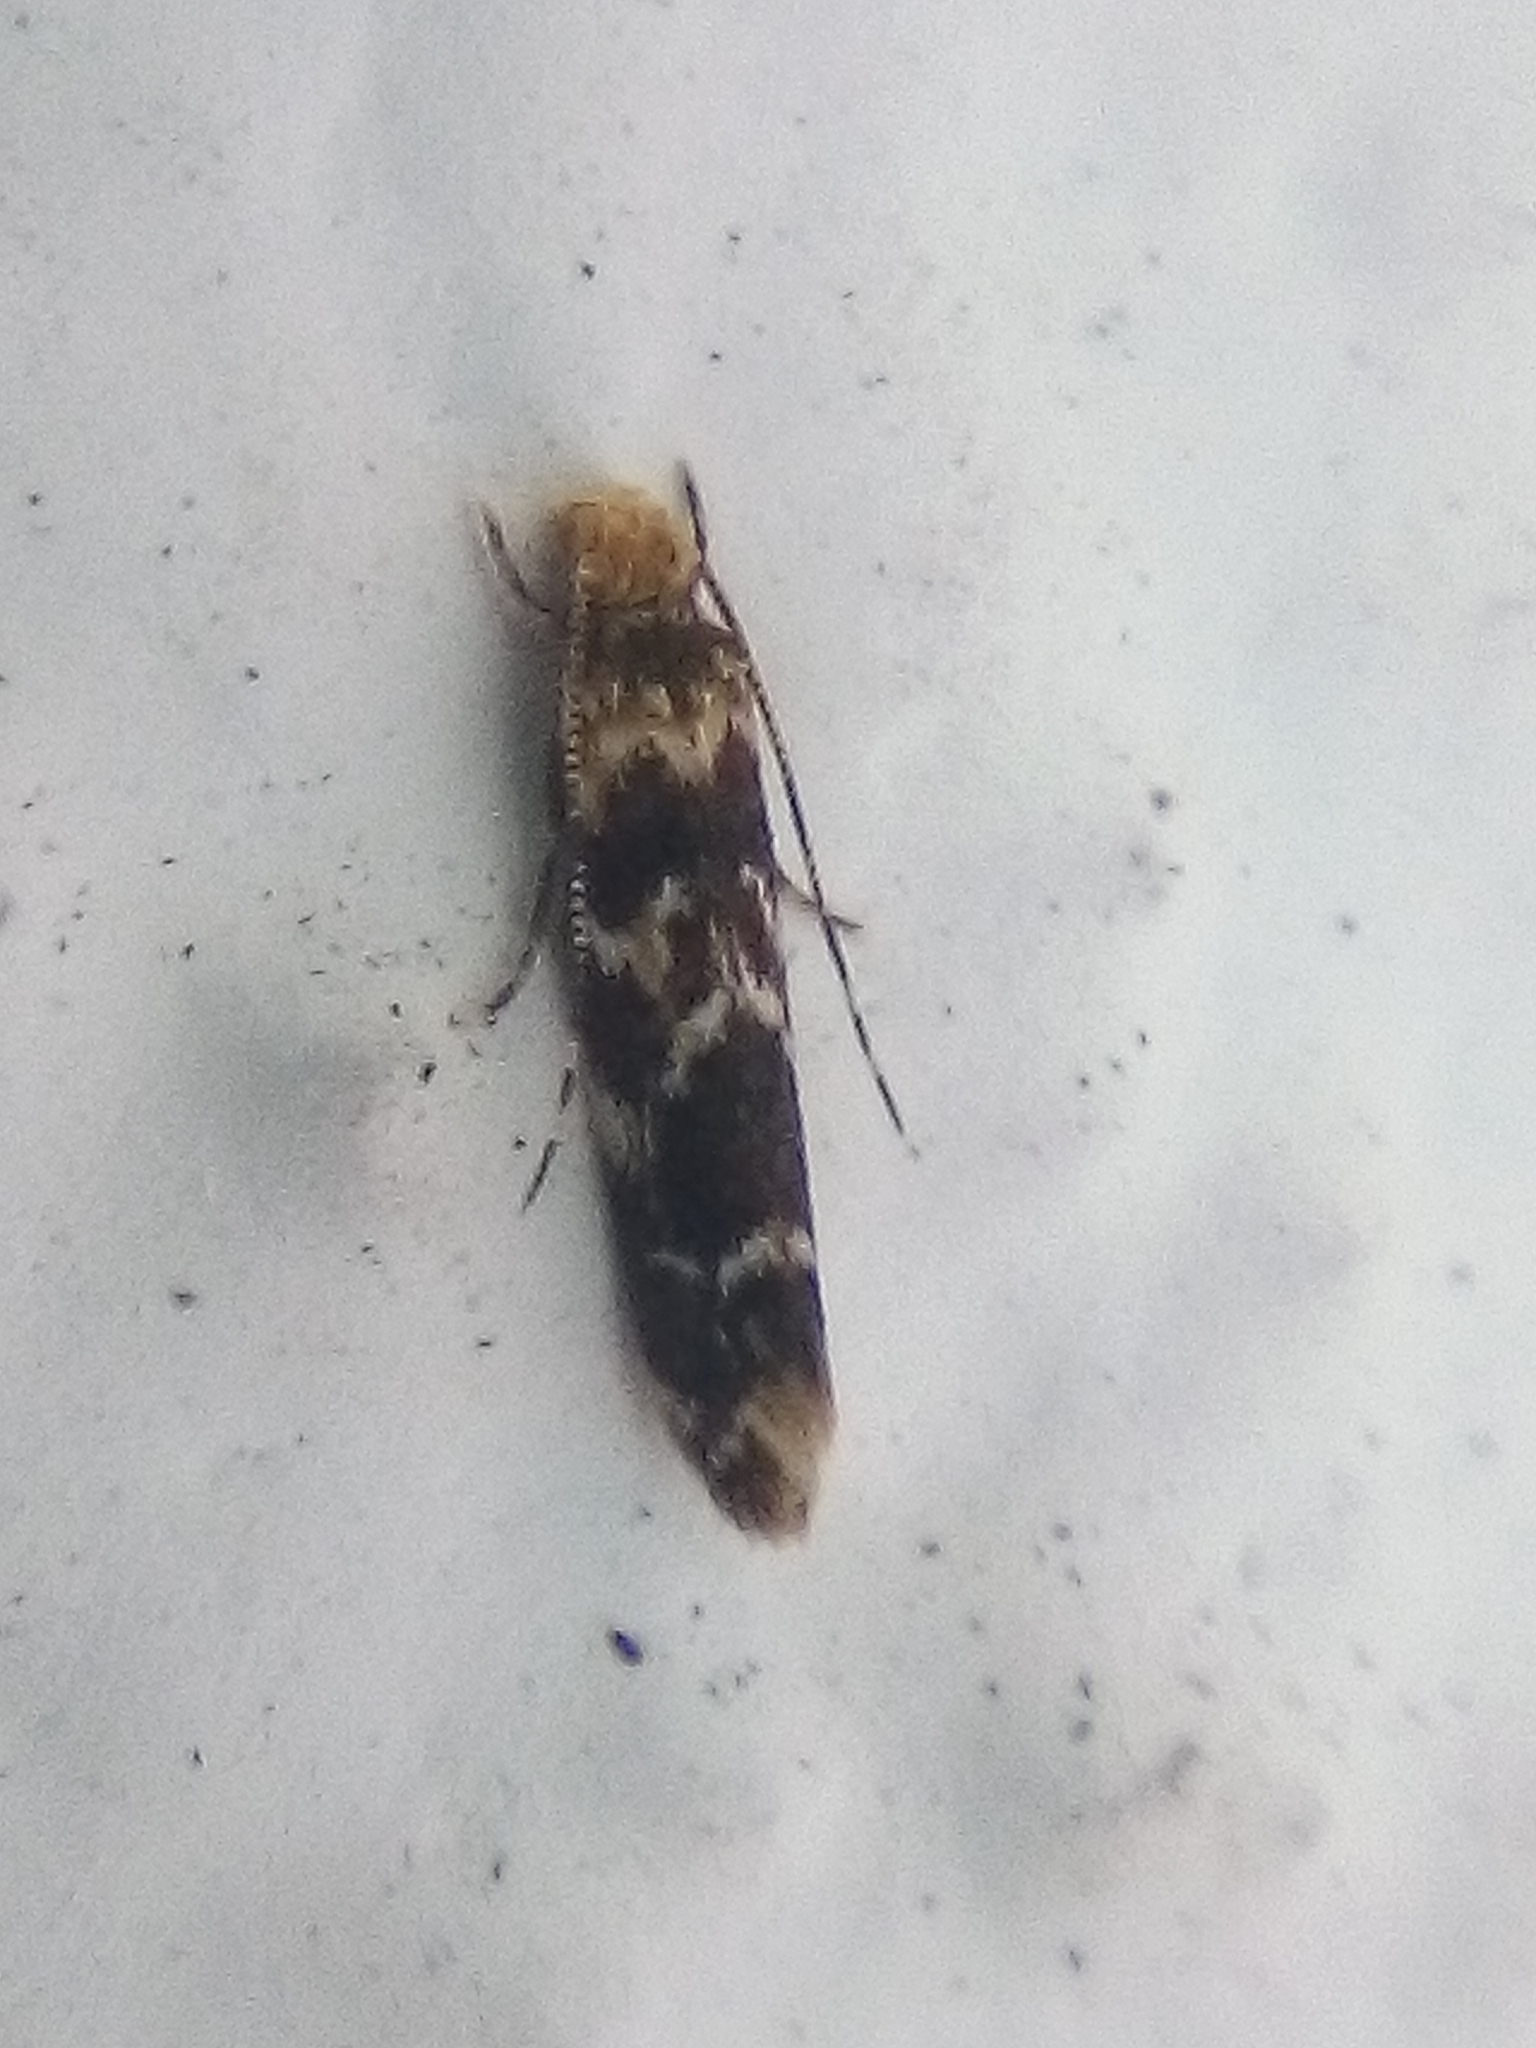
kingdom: Animalia
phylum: Arthropoda
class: Insecta
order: Lepidoptera
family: Dryadaulidae
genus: Dryadaula
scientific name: Dryadaula pactolia
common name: Cellar clothes
